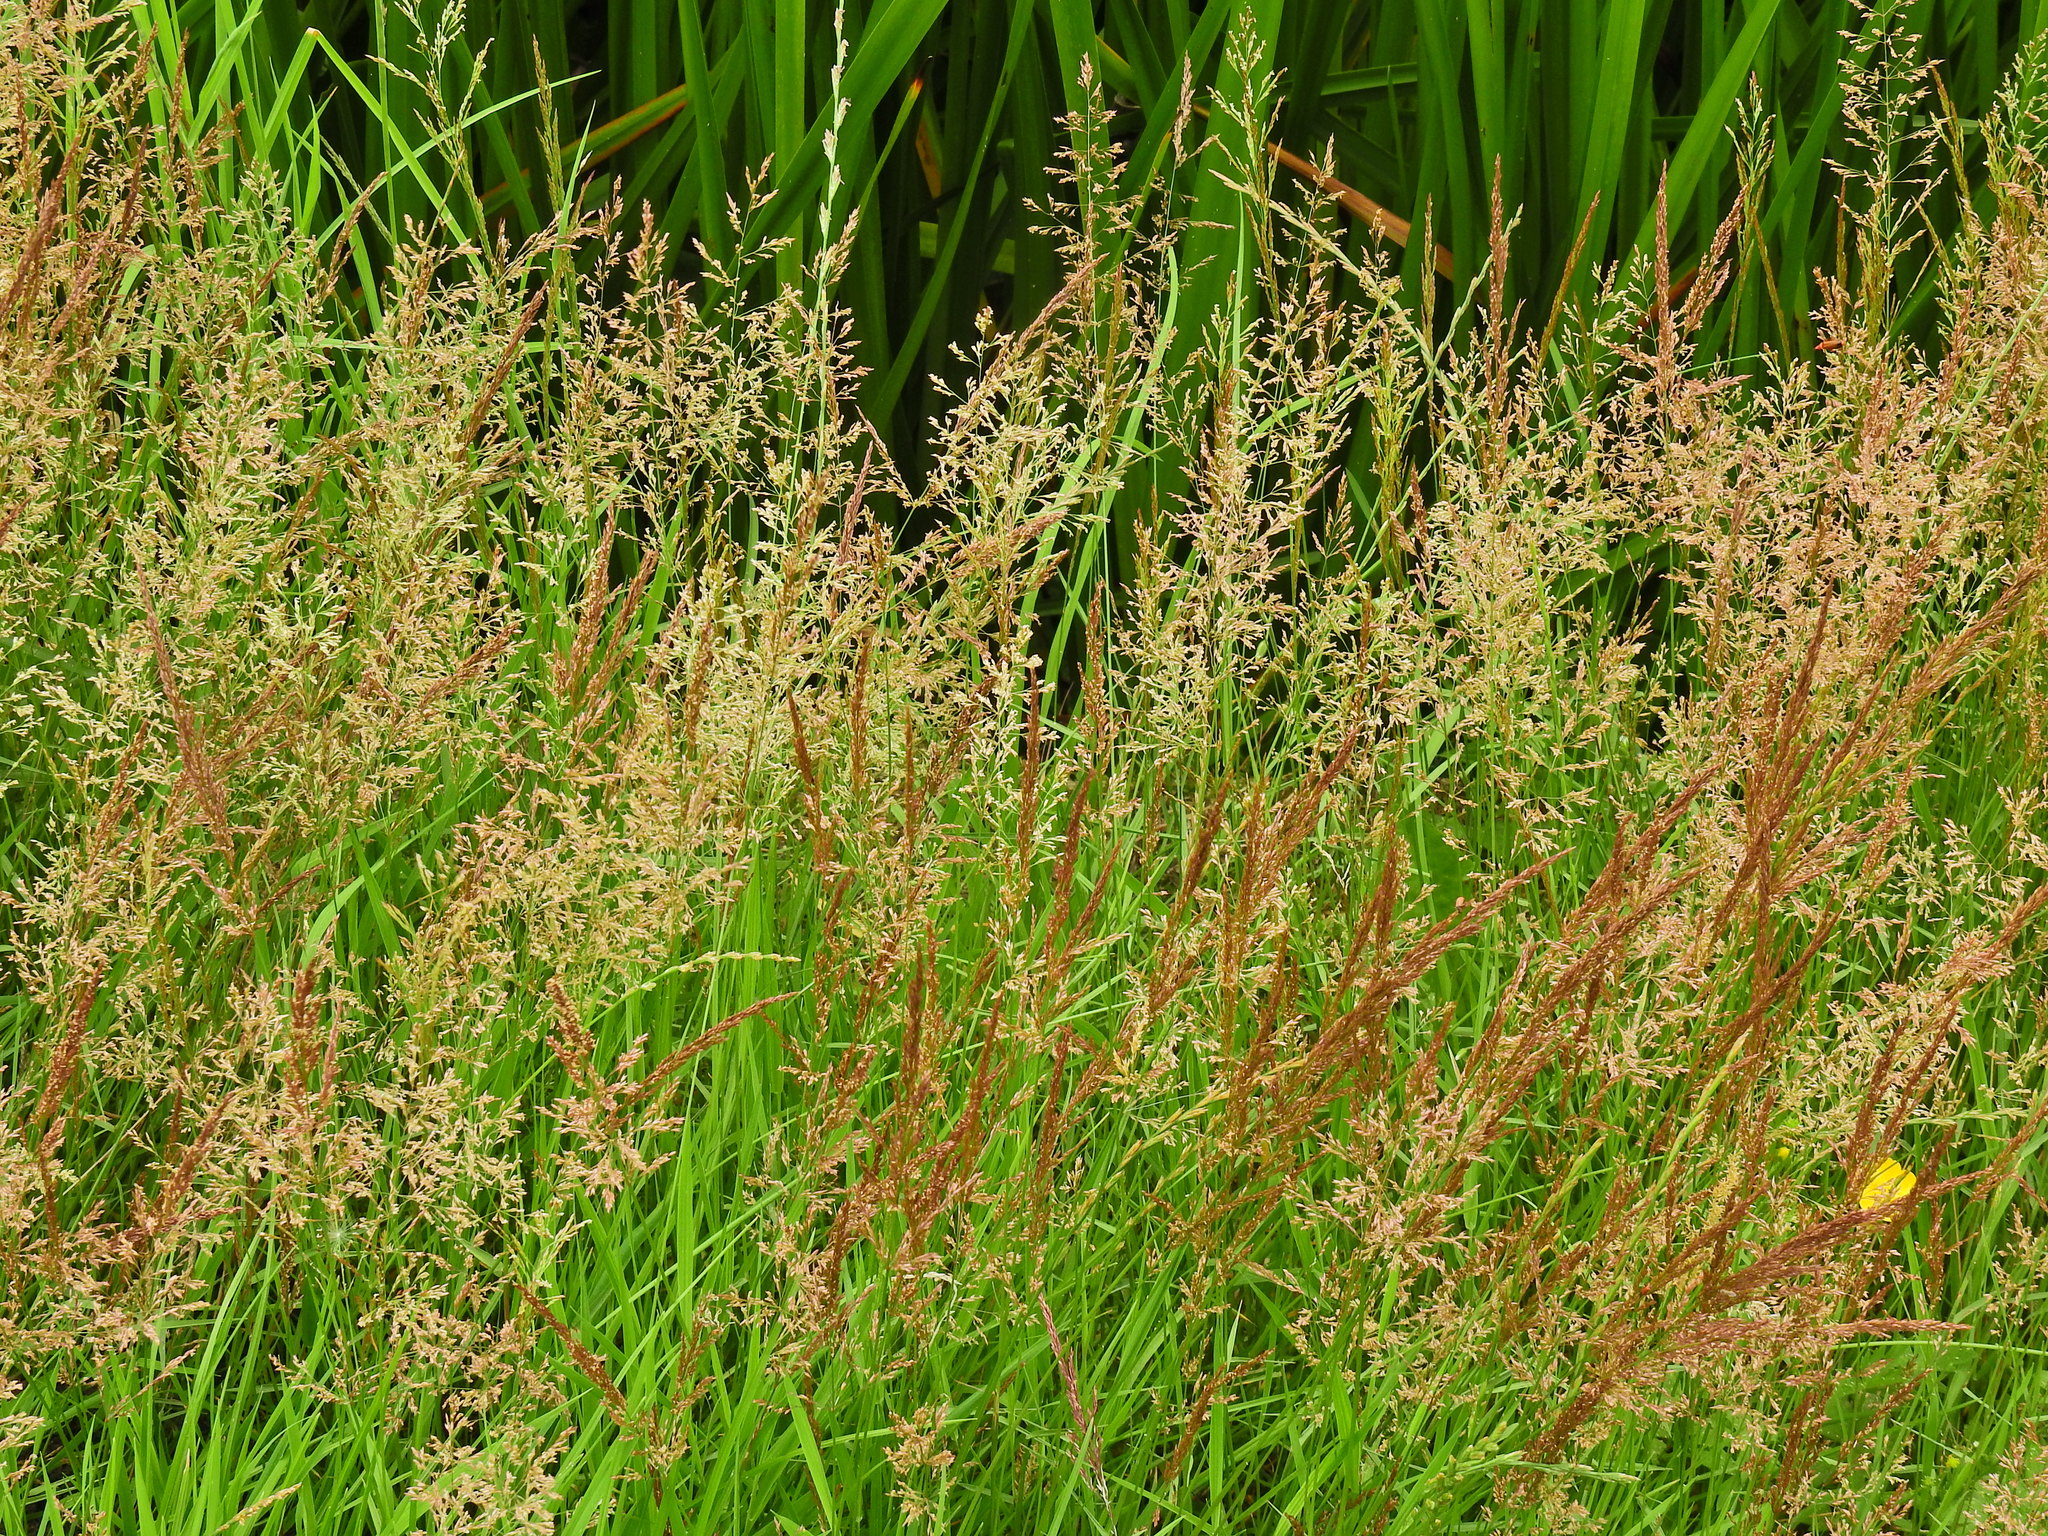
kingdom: Plantae
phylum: Tracheophyta
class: Liliopsida
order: Poales
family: Poaceae
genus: Agrostis
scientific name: Agrostis stolonifera
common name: Creeping bentgrass
